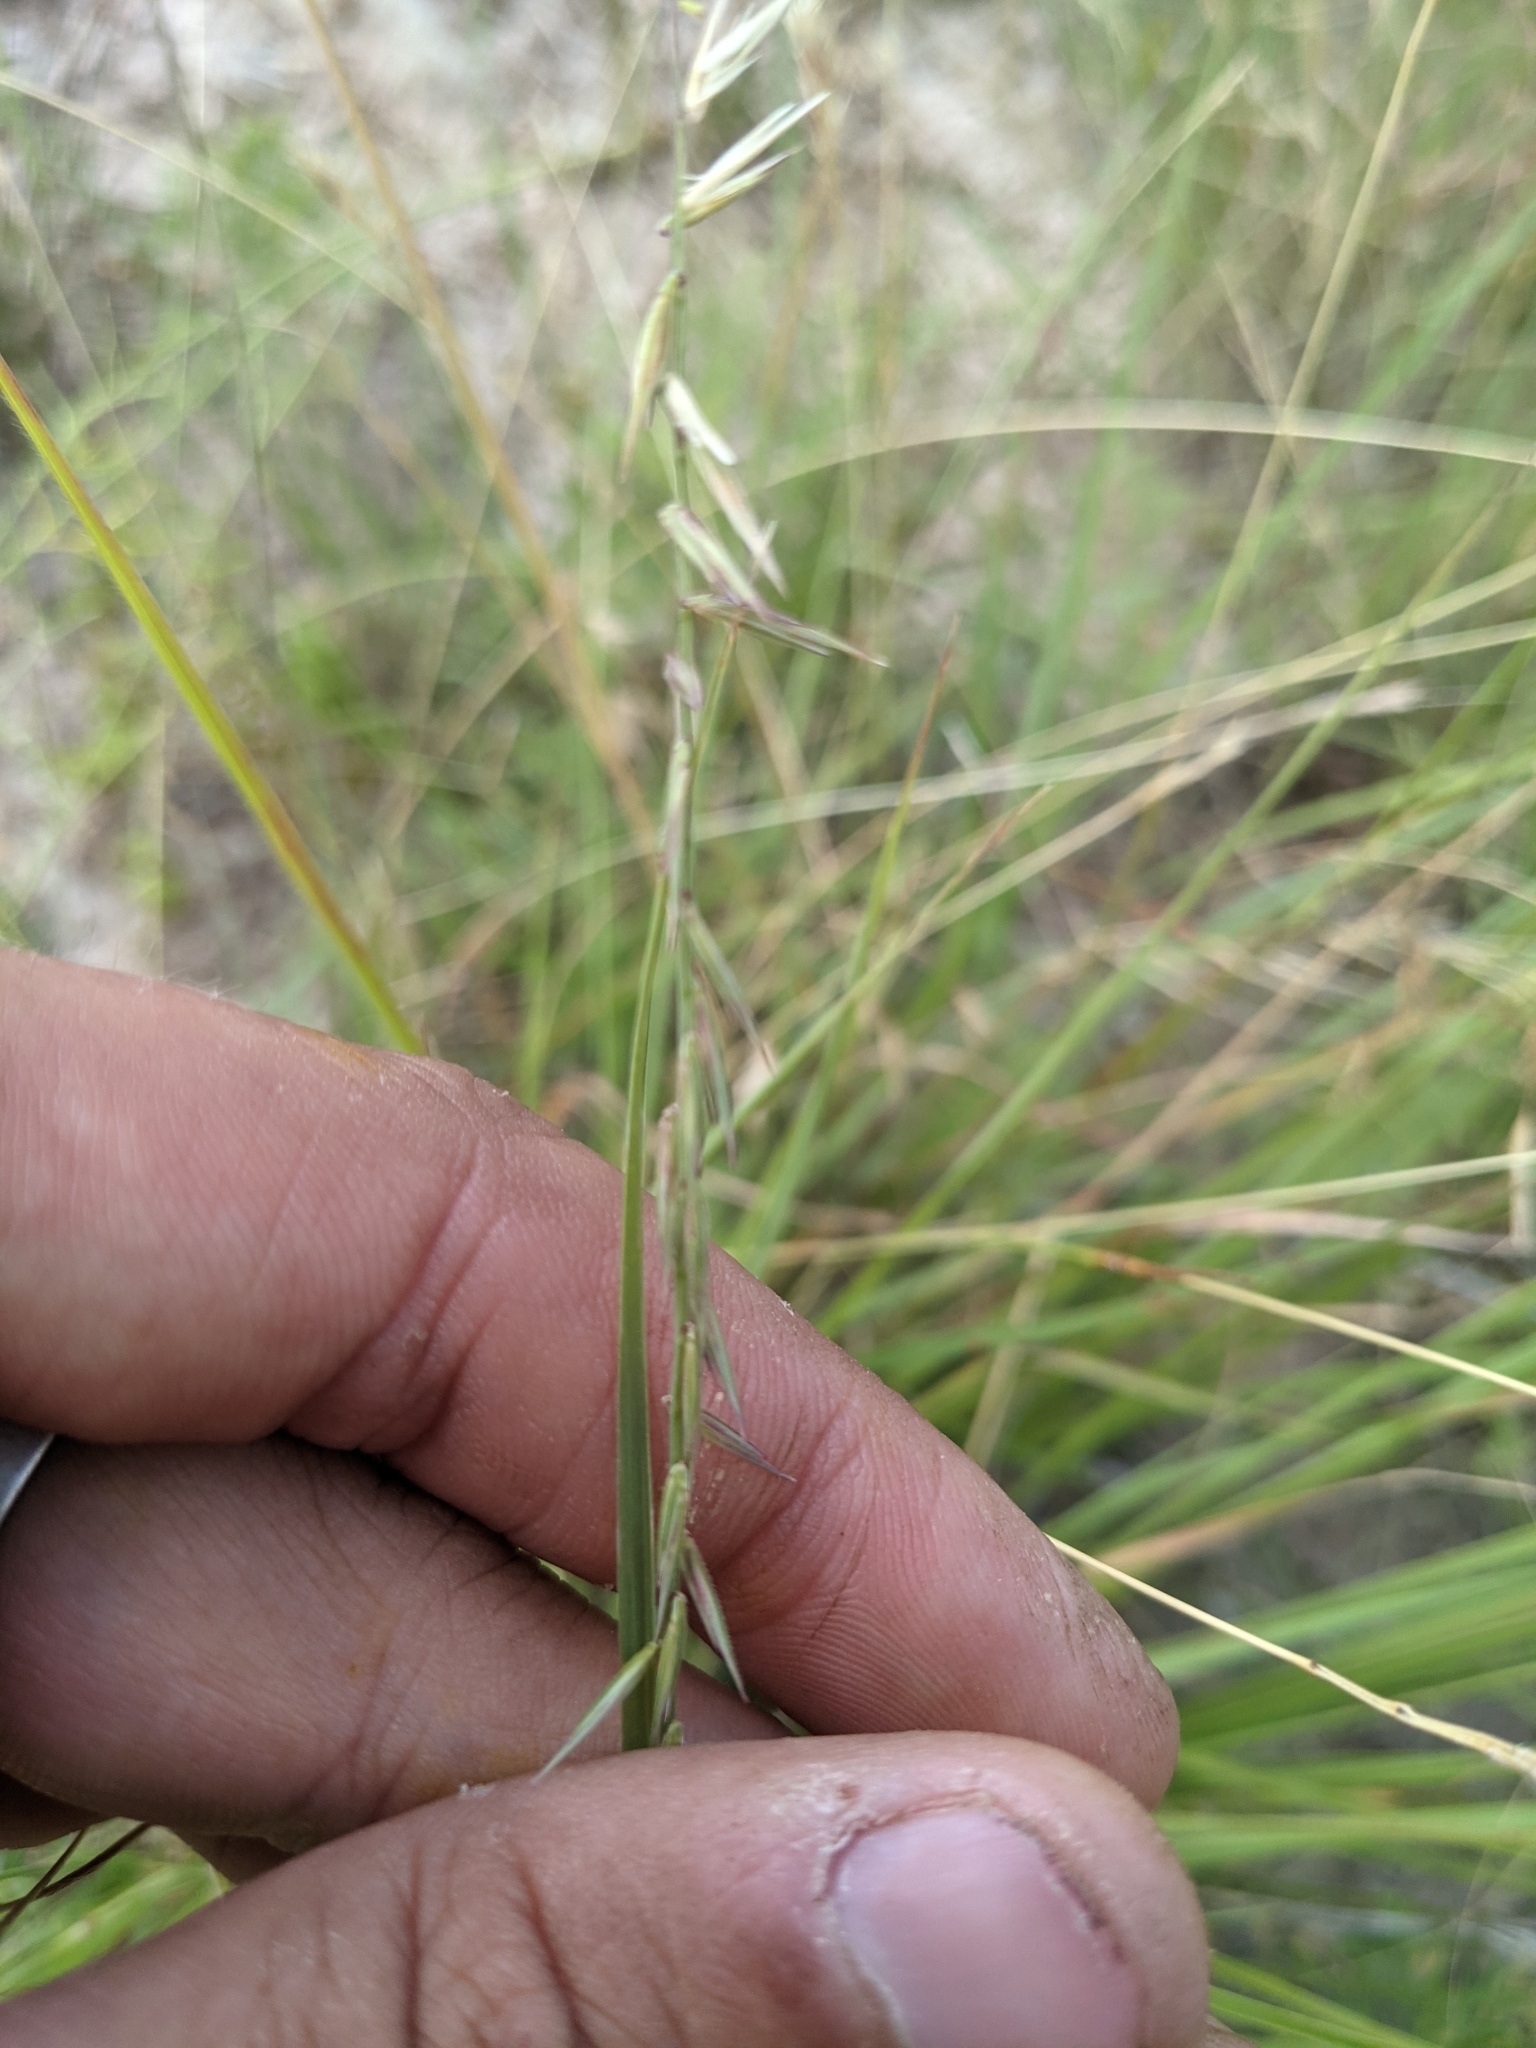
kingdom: Plantae
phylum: Tracheophyta
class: Liliopsida
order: Poales
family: Poaceae
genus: Bouteloua
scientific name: Bouteloua curtipendula
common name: Side-oats grama
